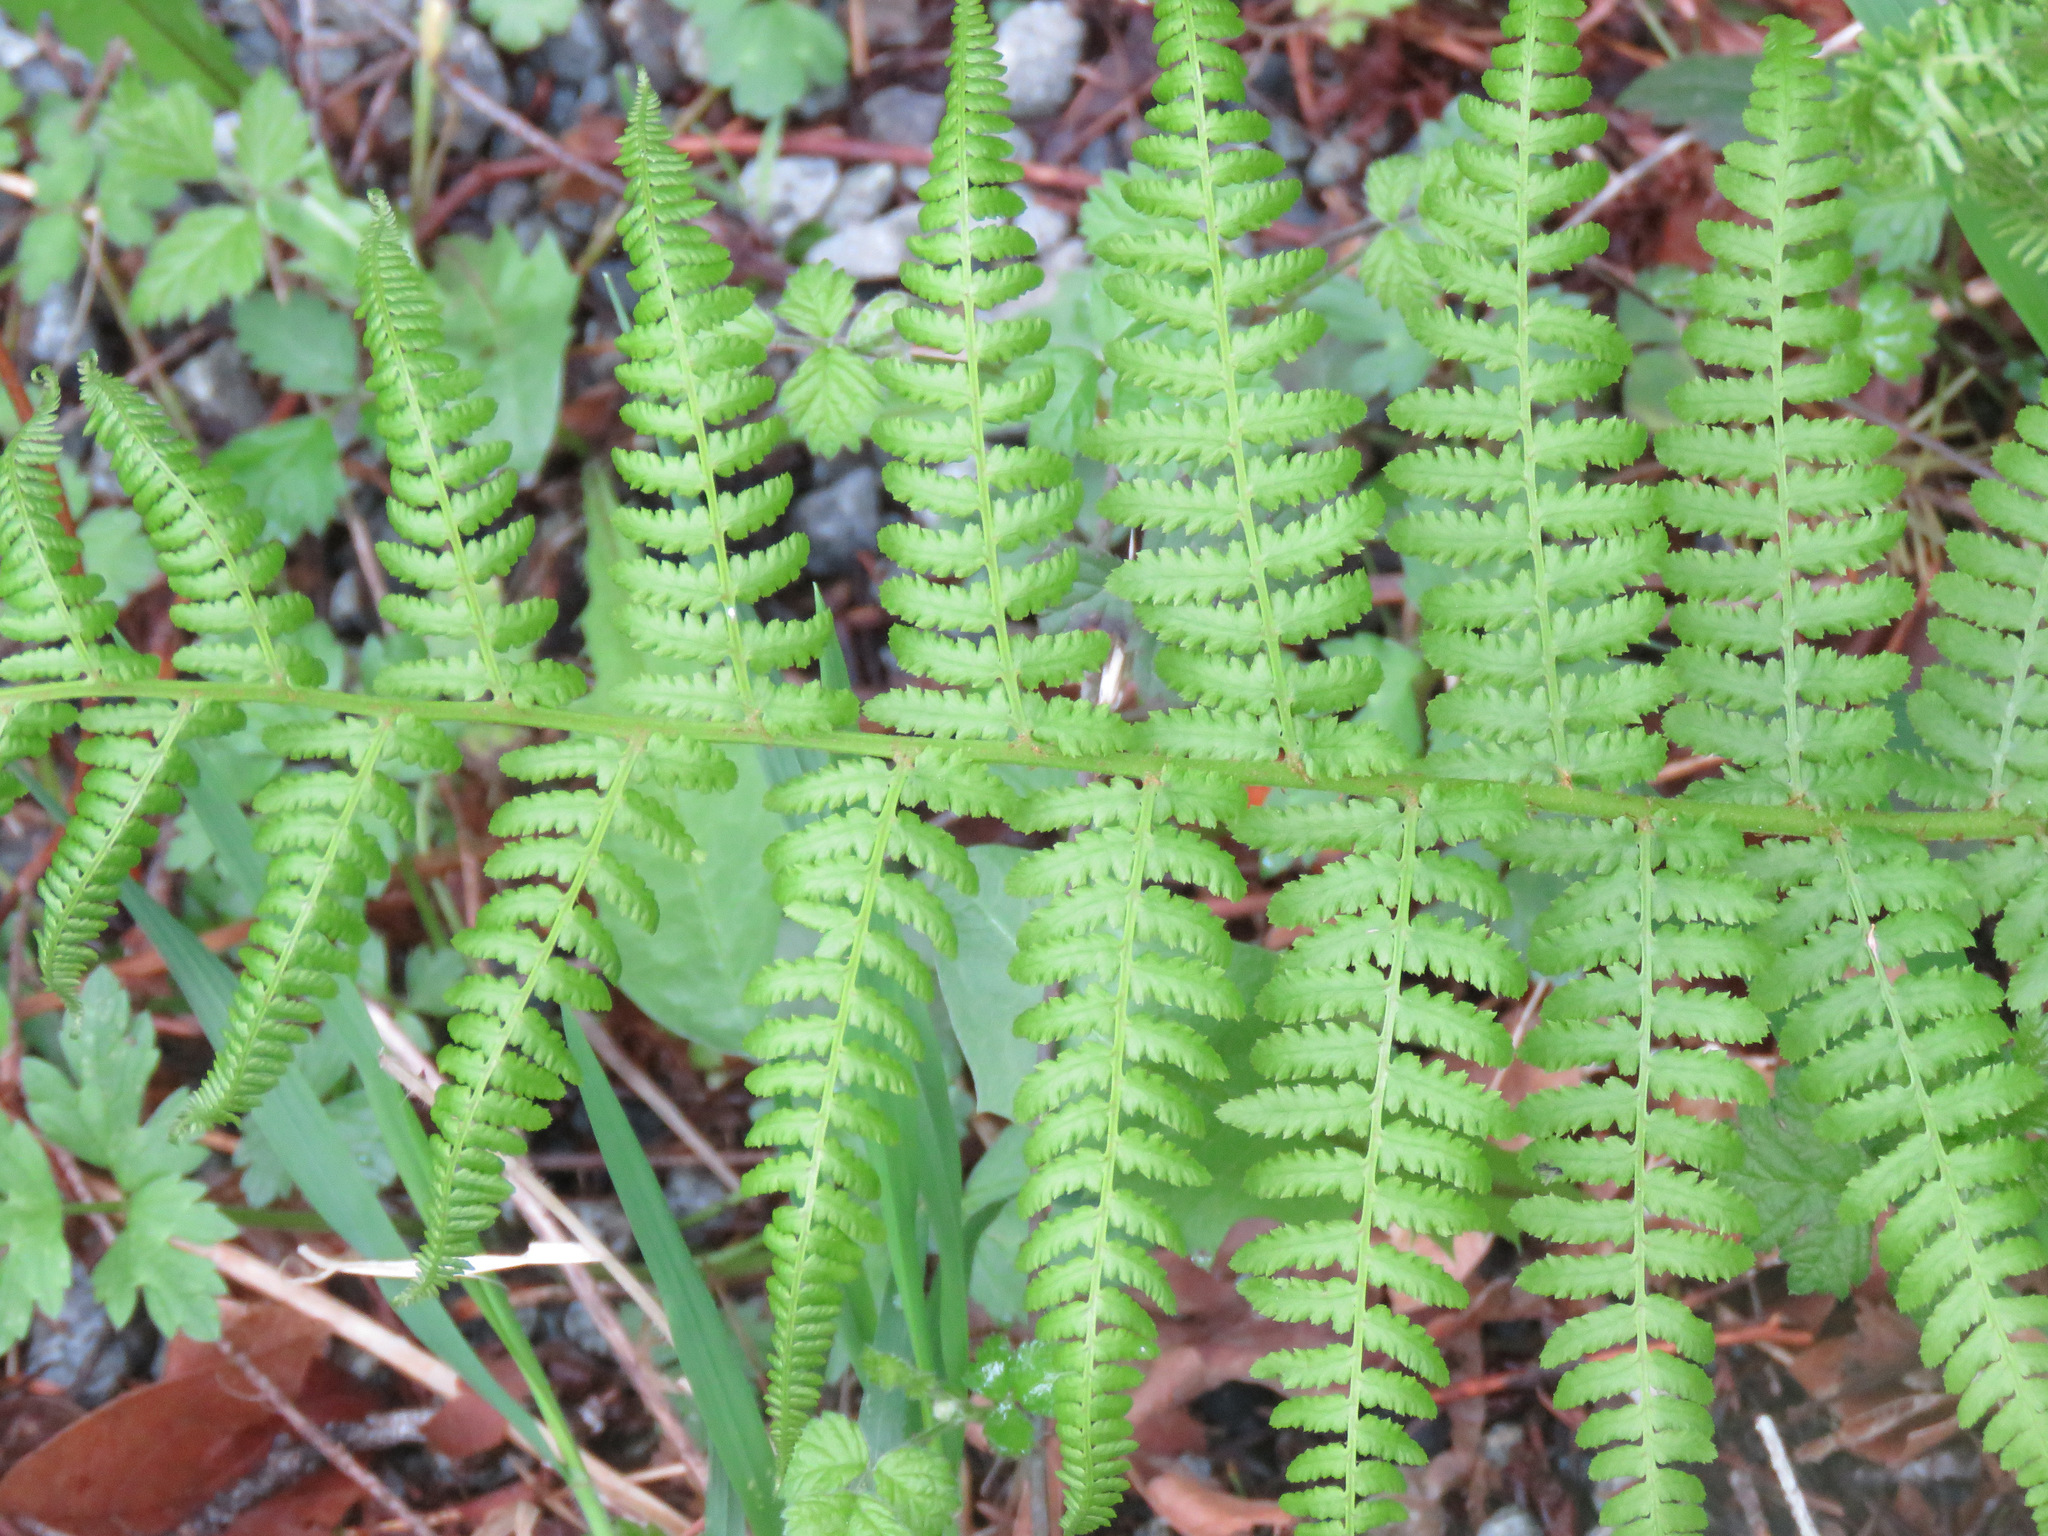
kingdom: Plantae
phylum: Tracheophyta
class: Polypodiopsida
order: Polypodiales
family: Athyriaceae
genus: Athyrium
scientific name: Athyrium cyclosorum
